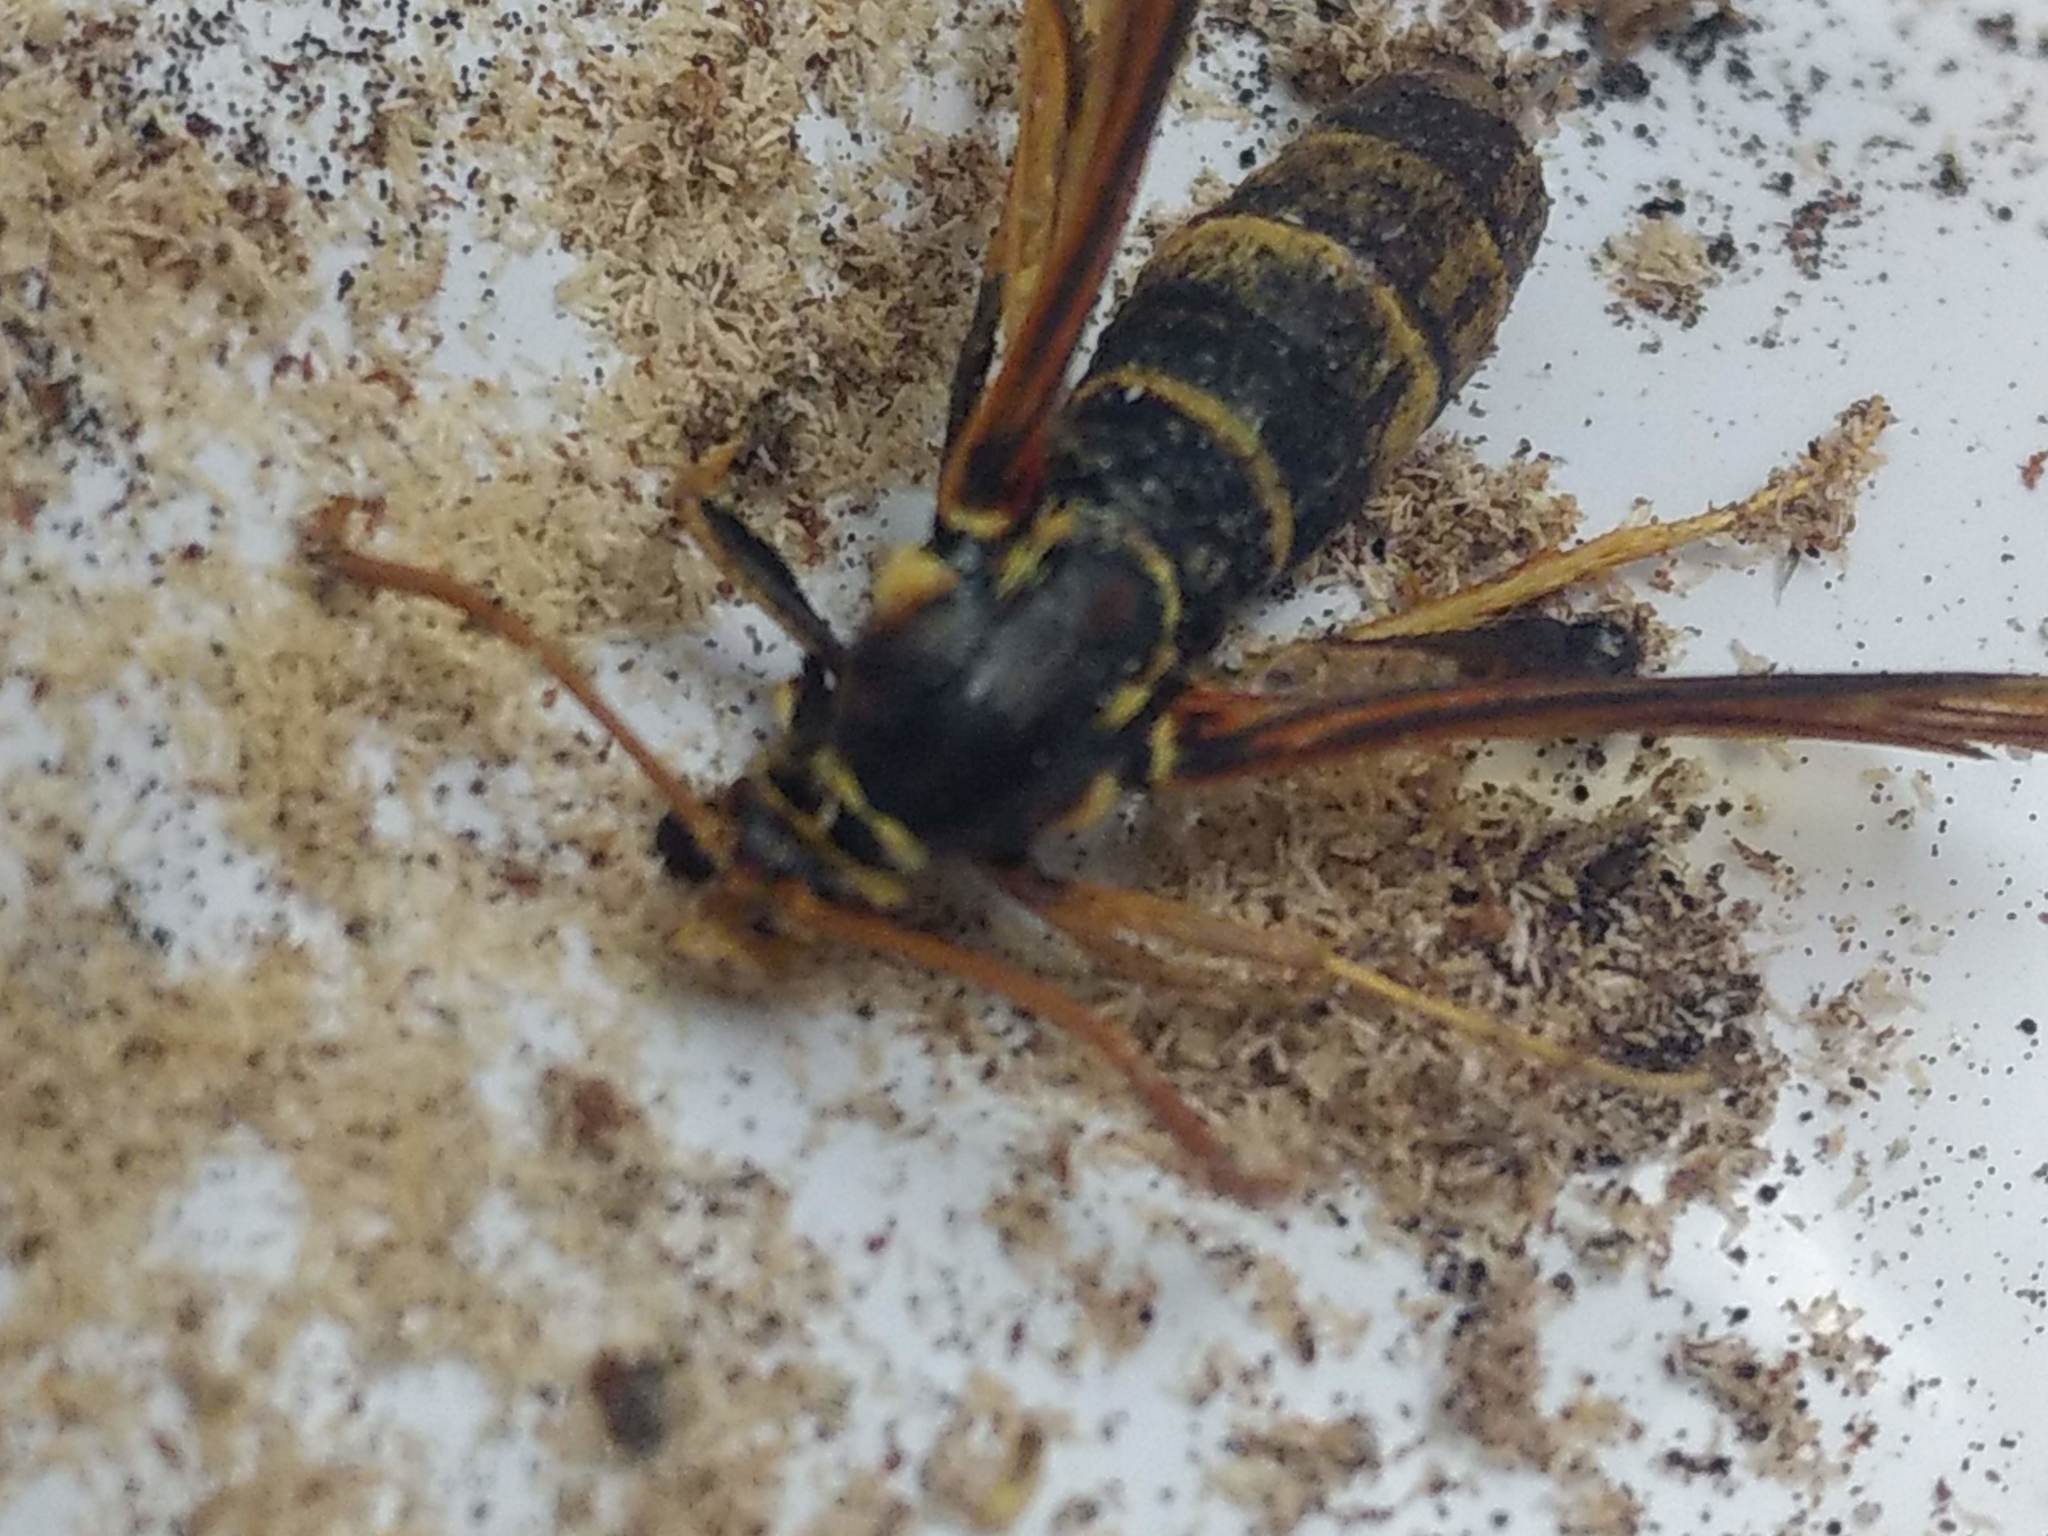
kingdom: Animalia
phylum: Arthropoda
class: Insecta
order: Lepidoptera
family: Sesiidae
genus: Paranthrene
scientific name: Paranthrene robiniae
